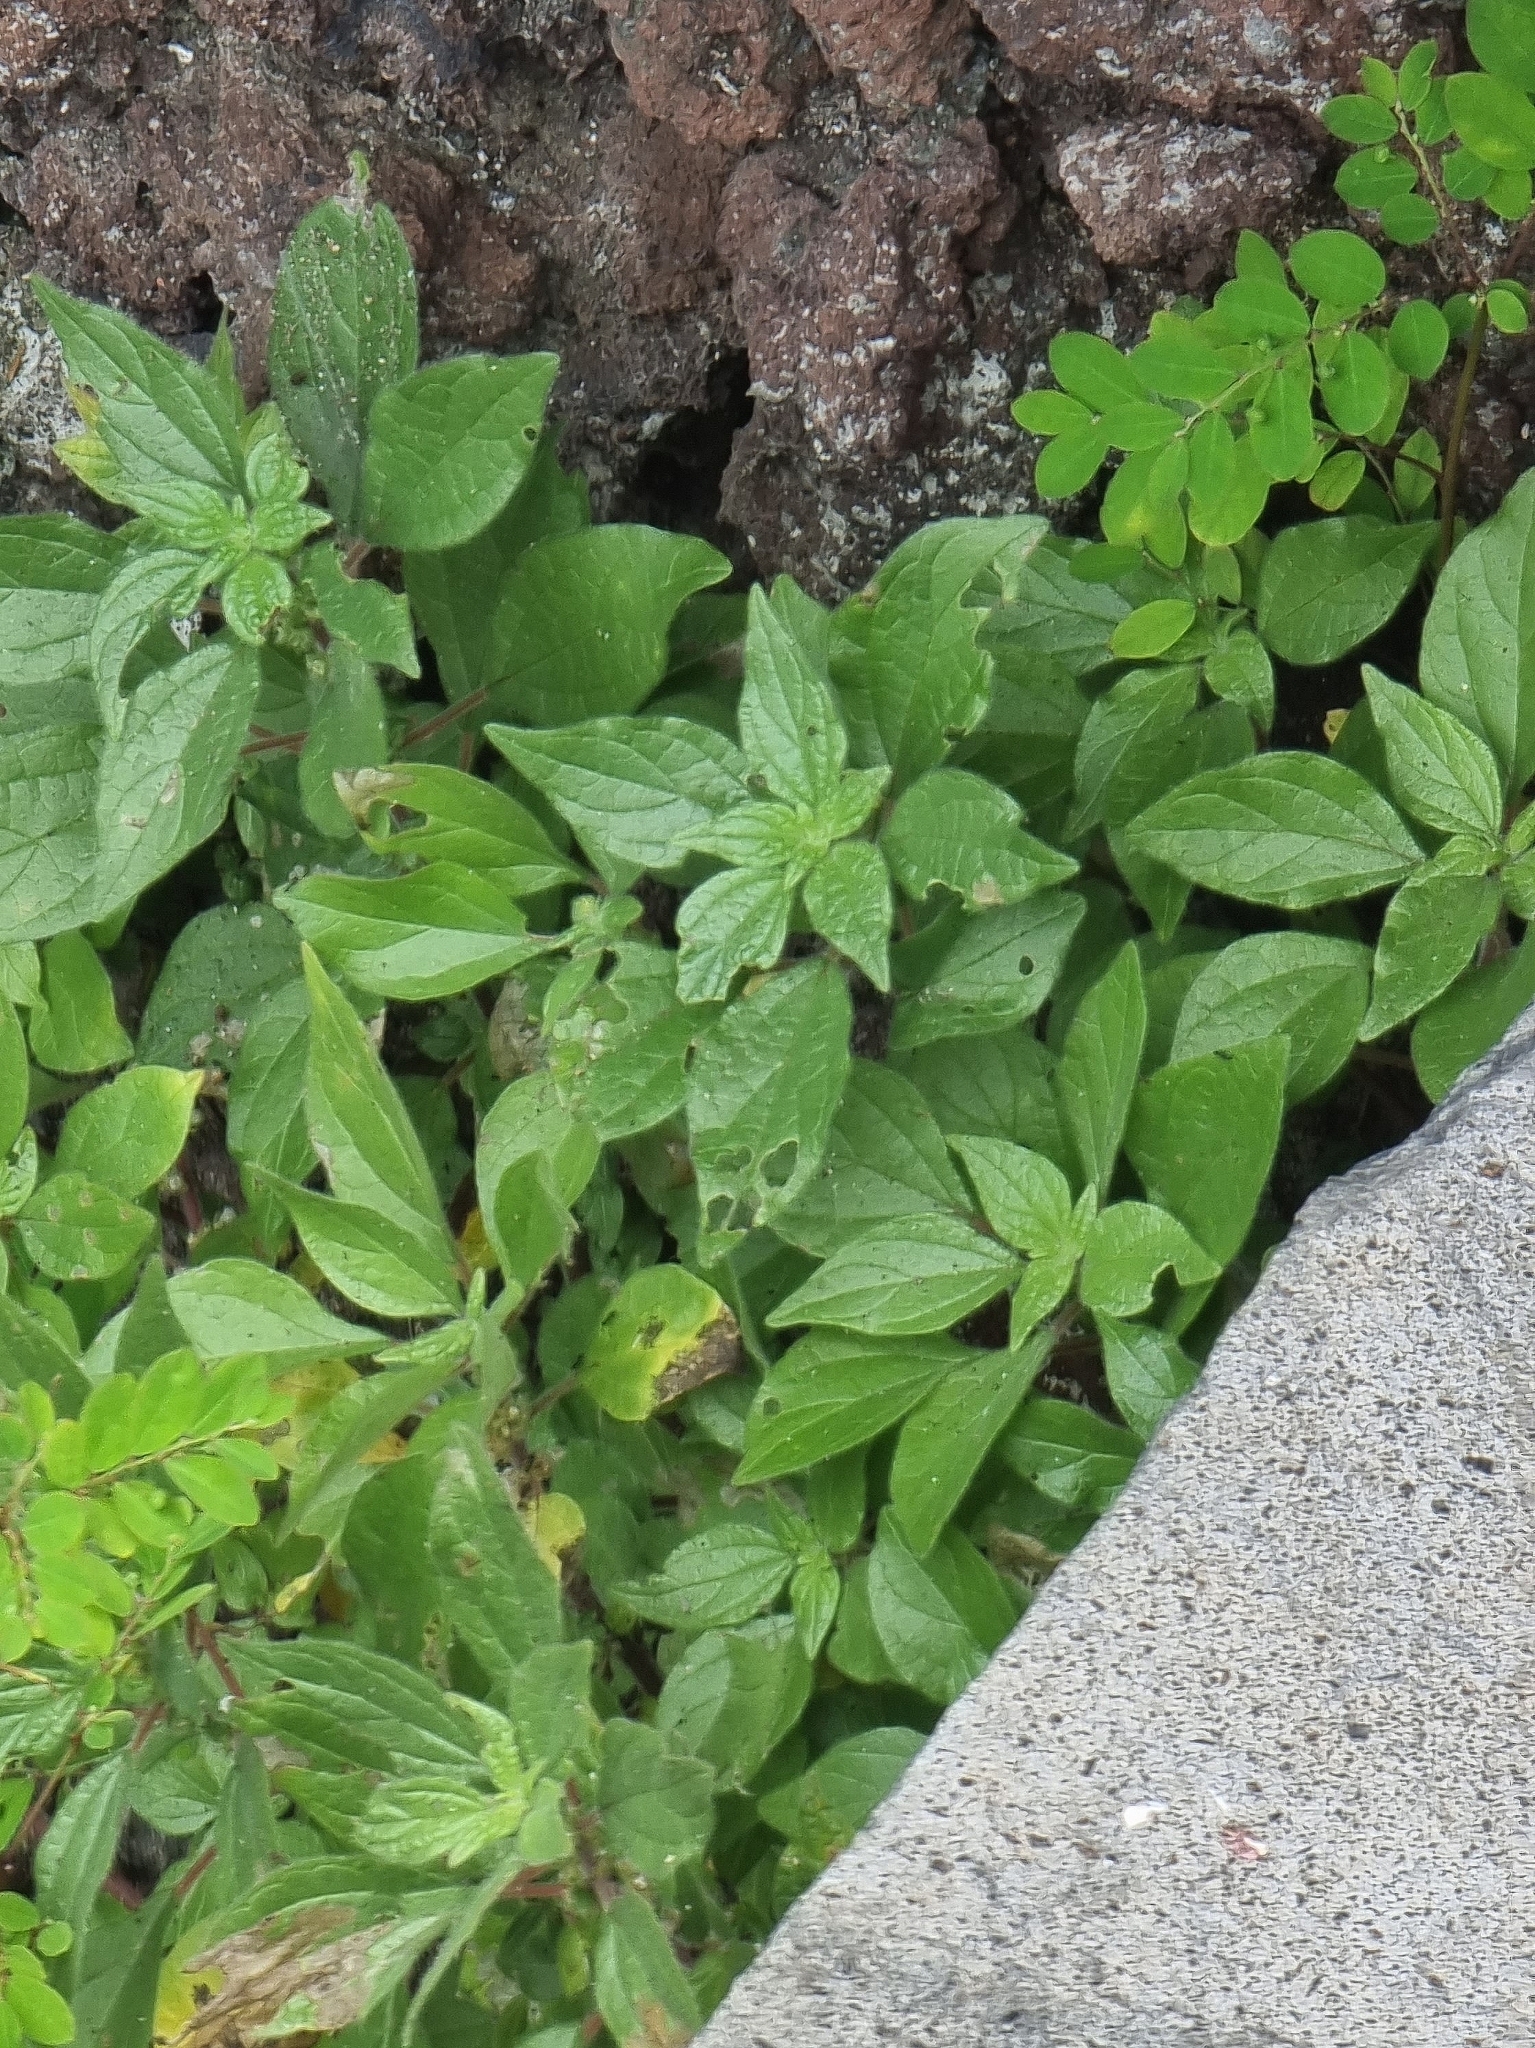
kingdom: Plantae
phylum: Tracheophyta
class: Magnoliopsida
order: Rosales
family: Urticaceae
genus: Parietaria
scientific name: Parietaria judaica
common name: Pellitory-of-the-wall
